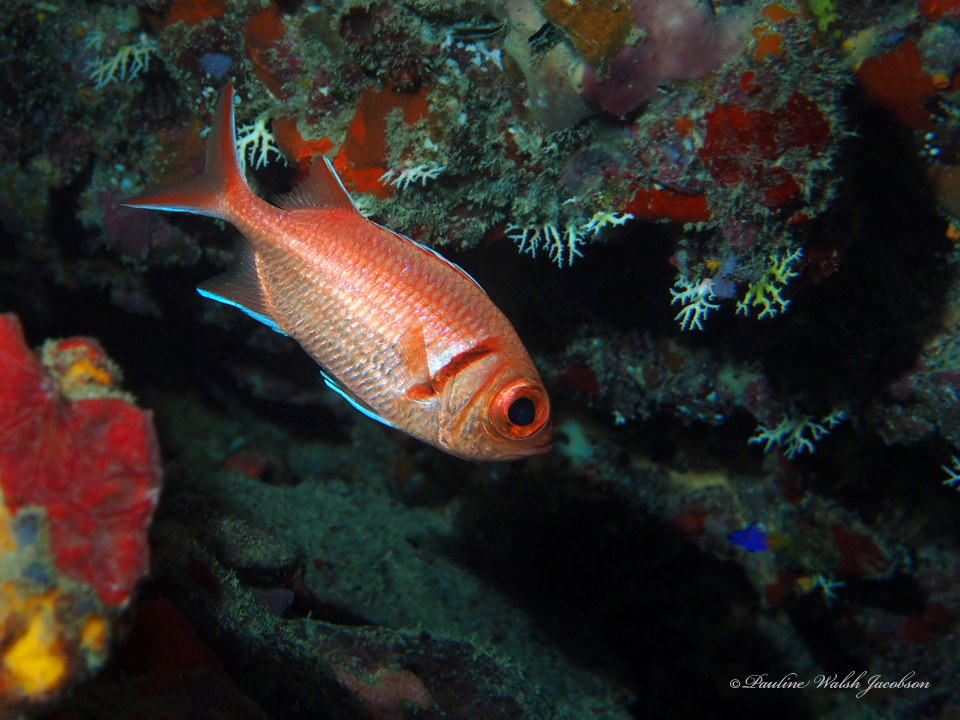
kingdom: Animalia
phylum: Chordata
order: Beryciformes
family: Holocentridae
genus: Myripristis
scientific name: Myripristis jacobus
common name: Blackbar soldierfish
